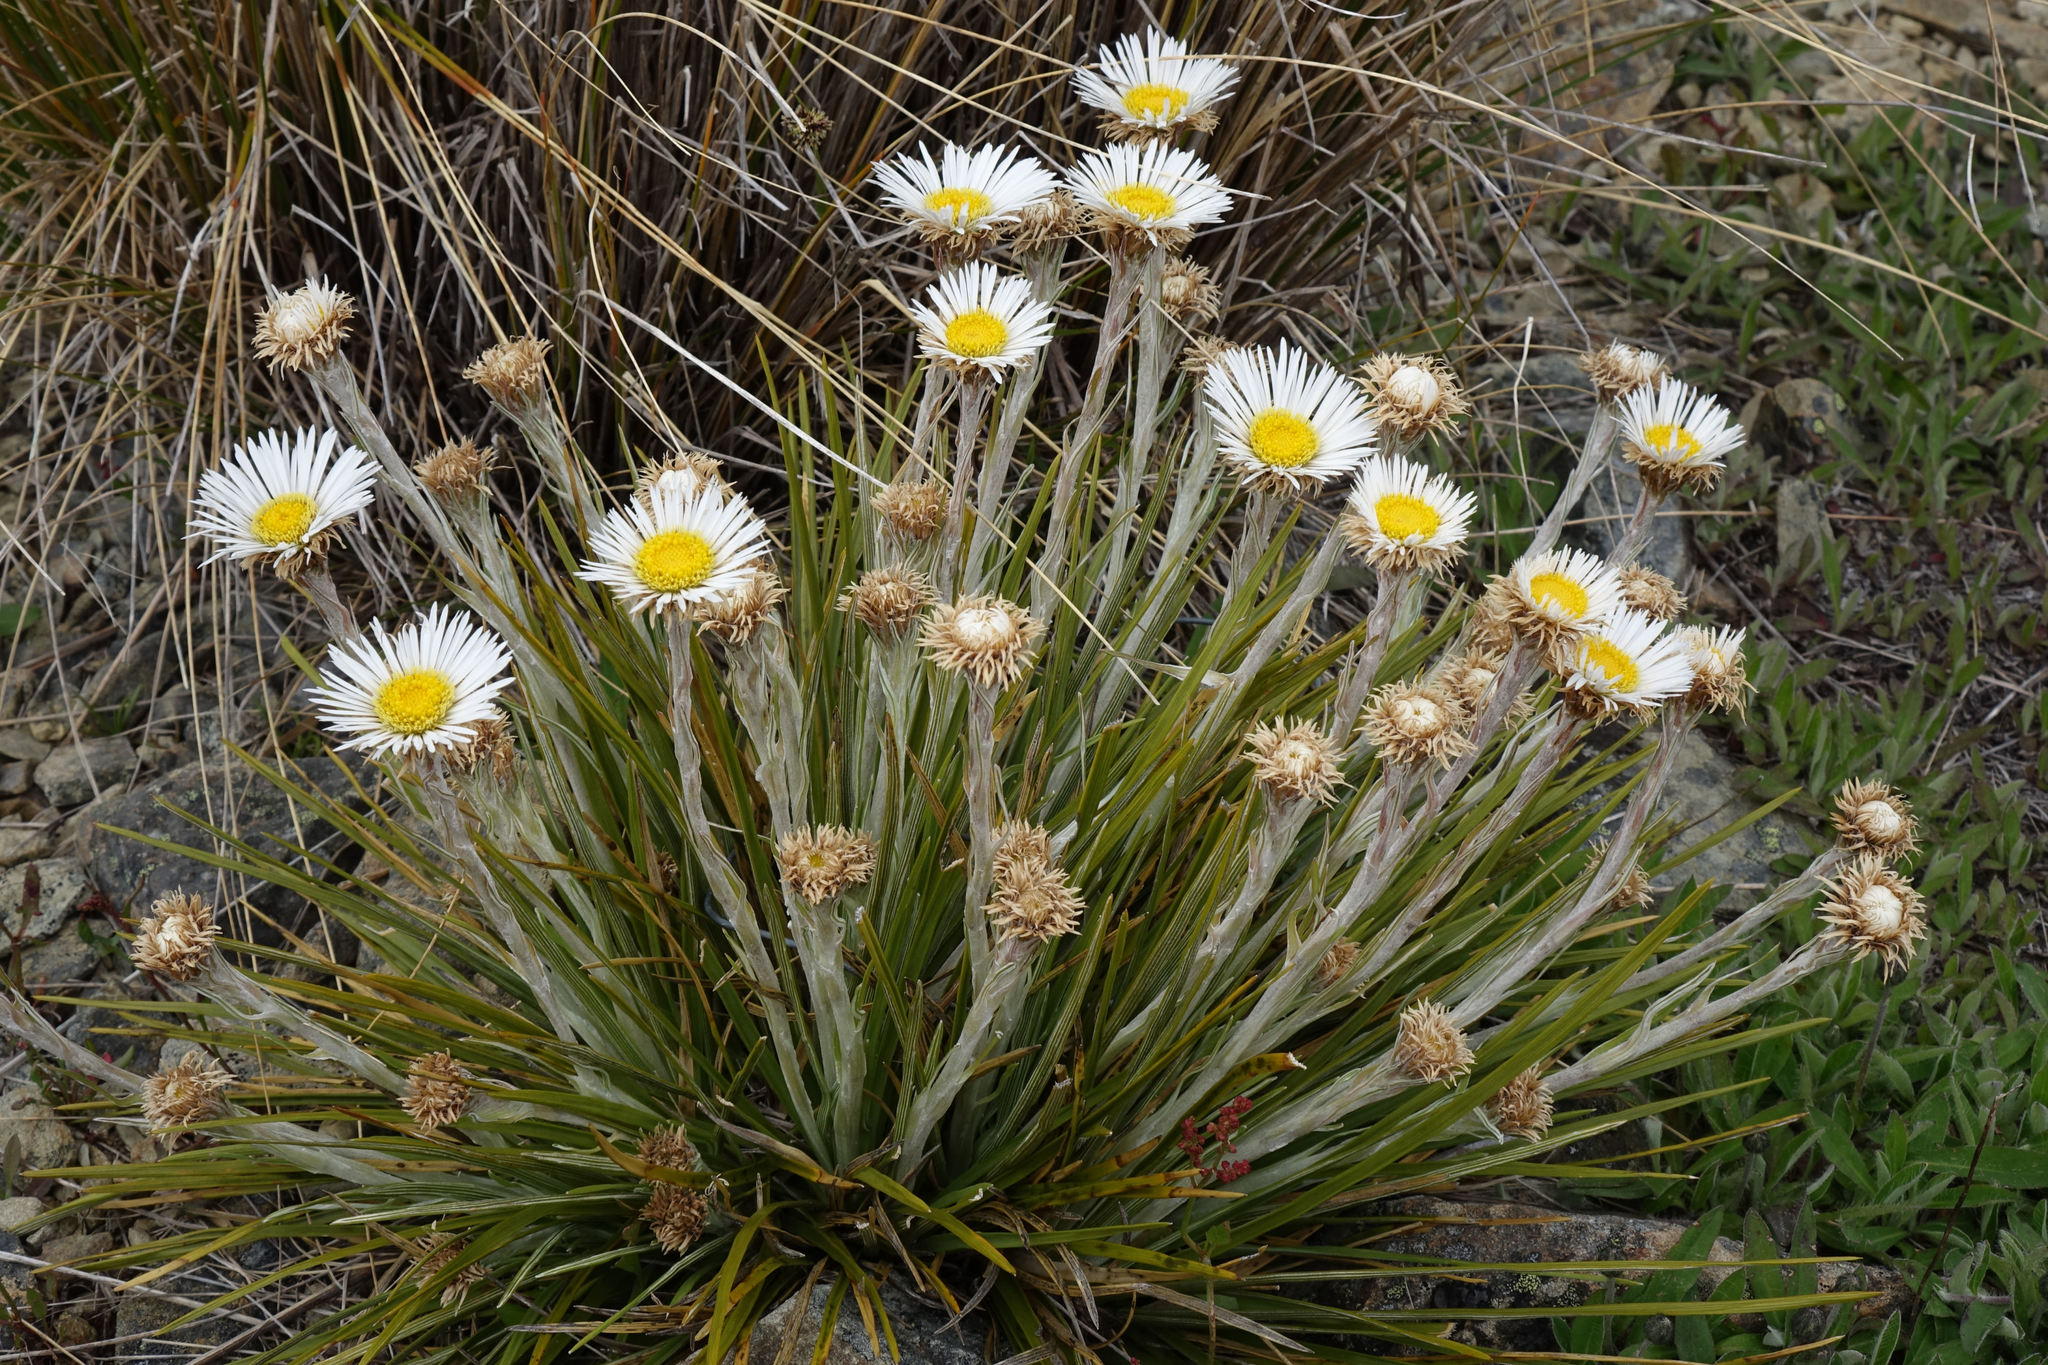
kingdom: Plantae
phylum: Tracheophyta
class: Magnoliopsida
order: Asterales
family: Asteraceae
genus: Celmisia
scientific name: Celmisia lyallii
